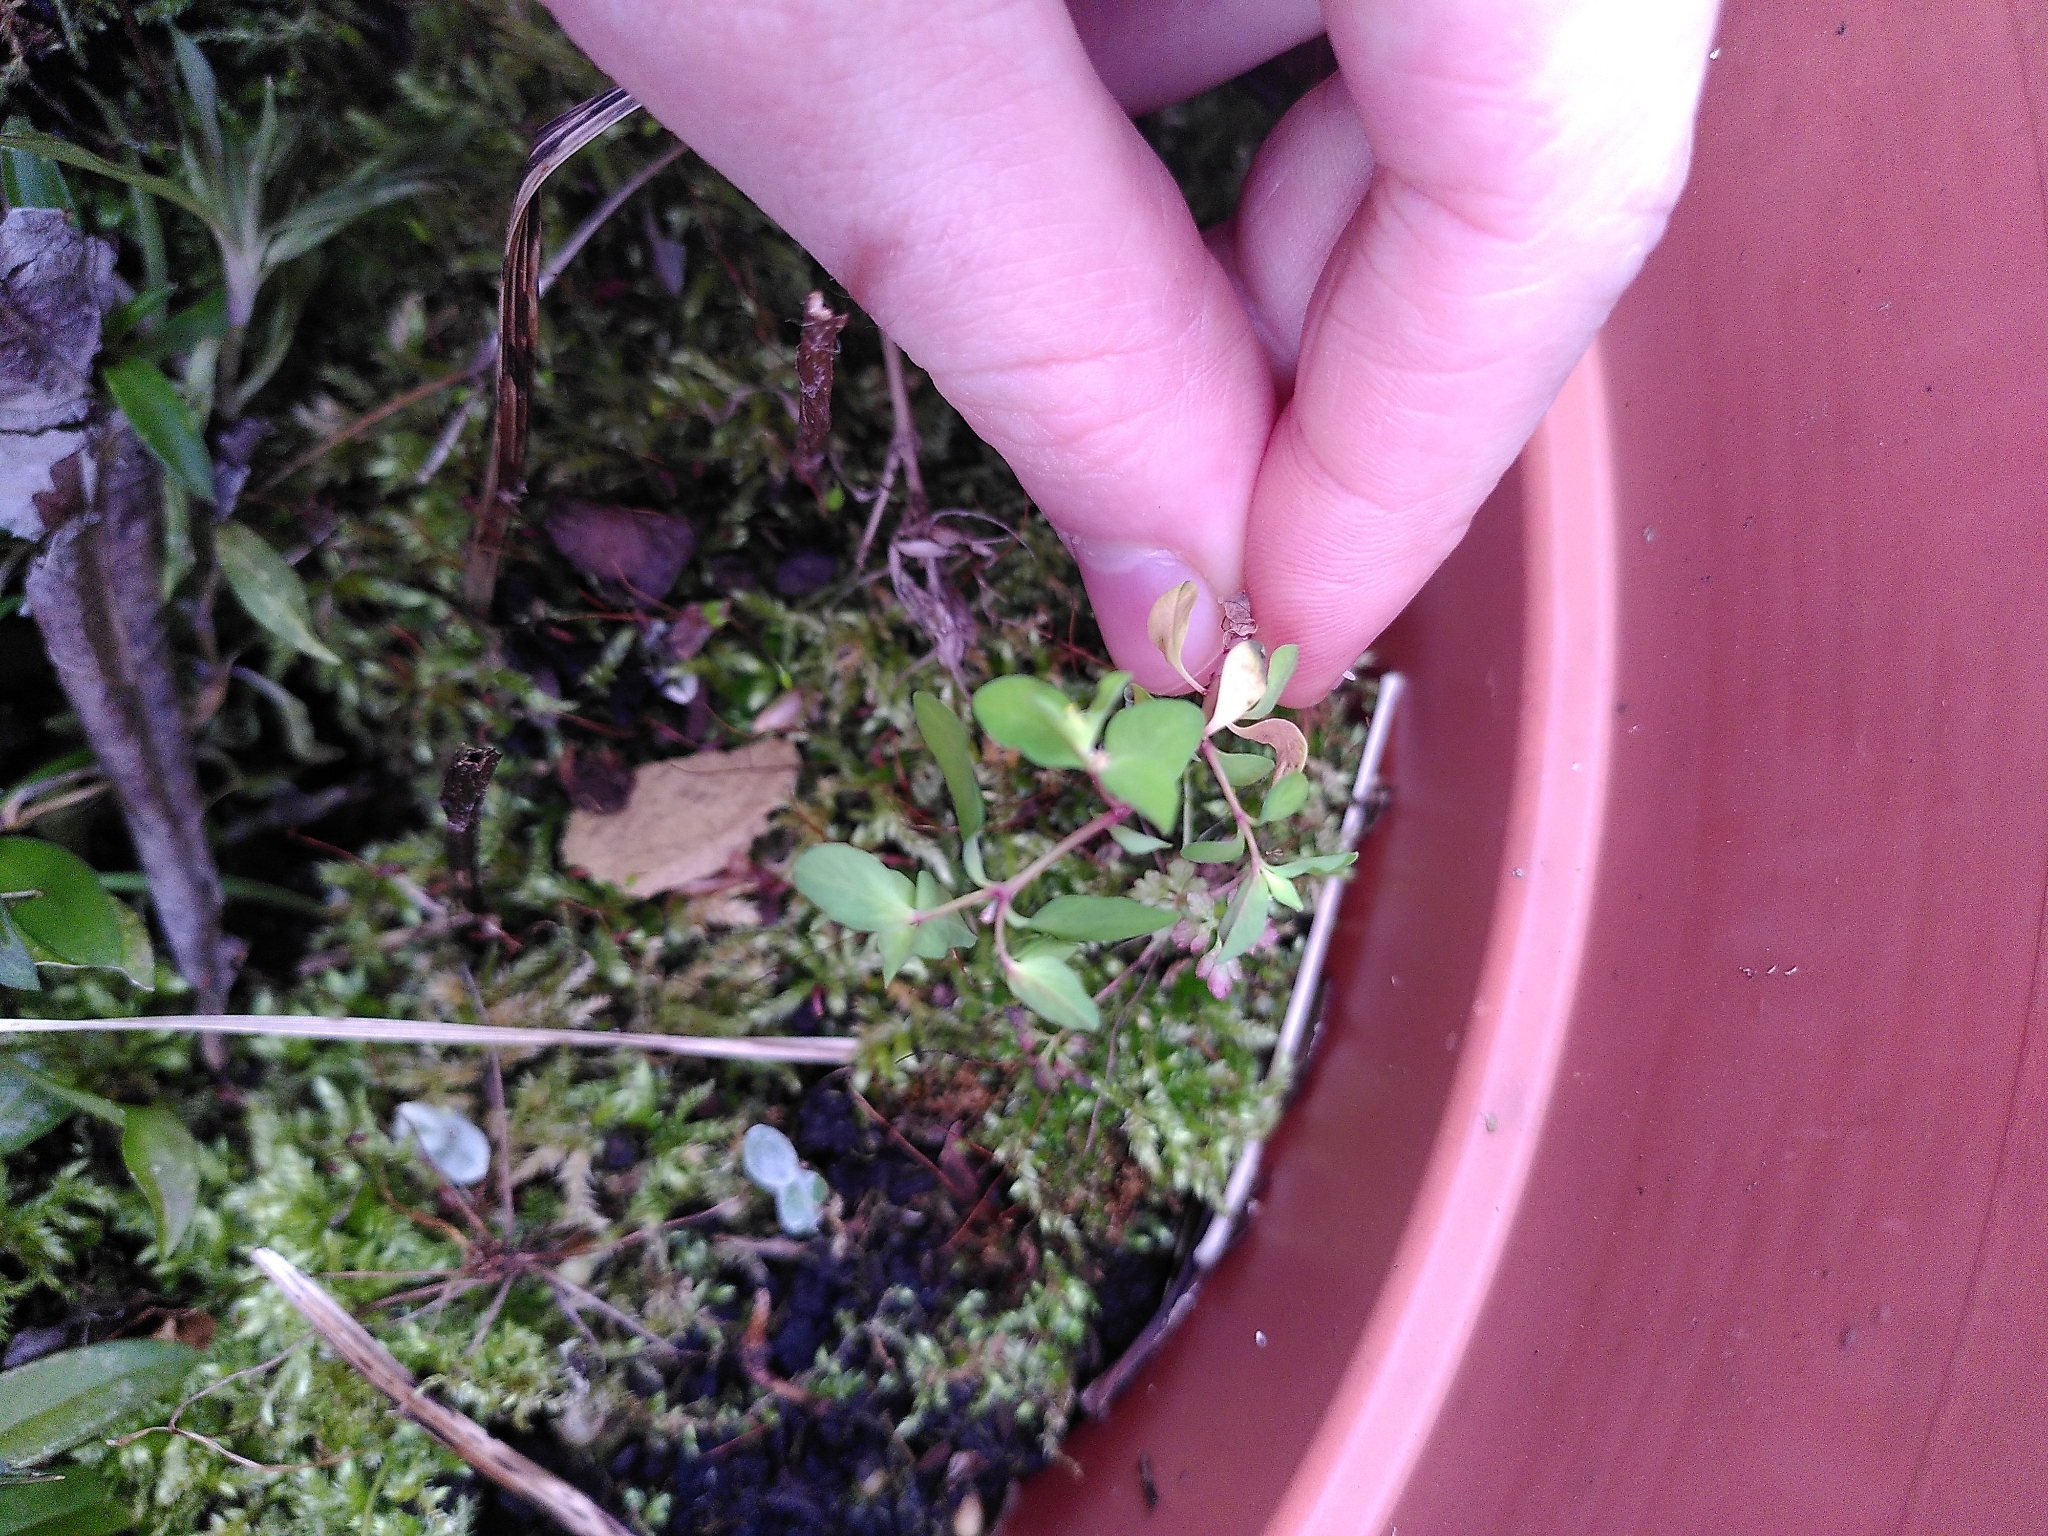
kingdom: Plantae
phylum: Tracheophyta
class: Magnoliopsida
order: Malpighiales
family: Euphorbiaceae
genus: Euphorbia
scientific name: Euphorbia peplus
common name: Petty spurge
